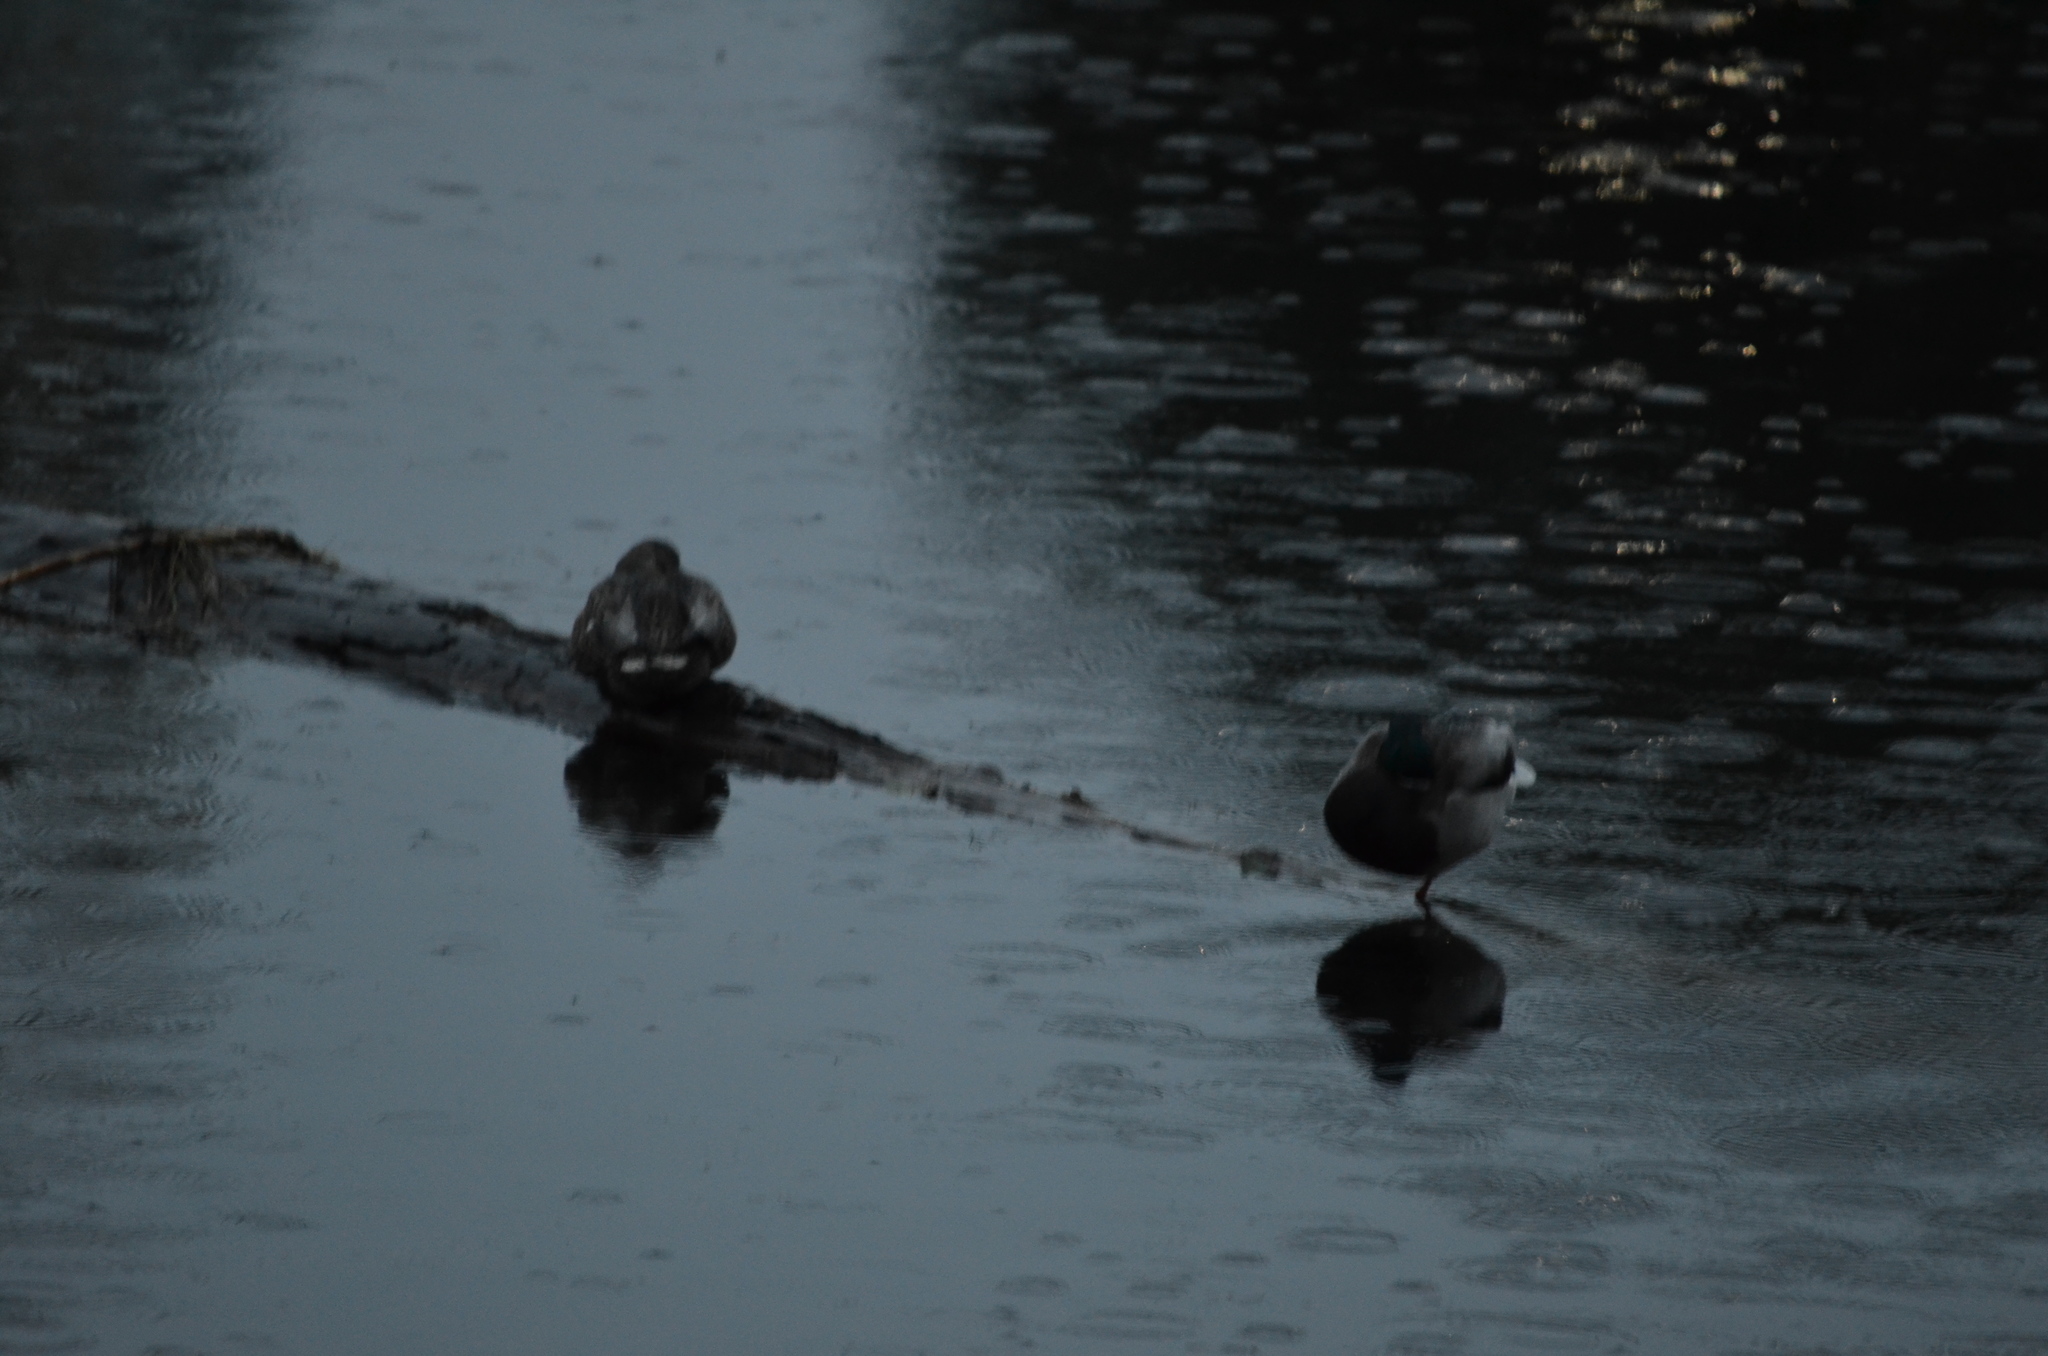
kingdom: Animalia
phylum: Chordata
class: Aves
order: Anseriformes
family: Anatidae
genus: Anas
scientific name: Anas platyrhynchos
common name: Mallard
